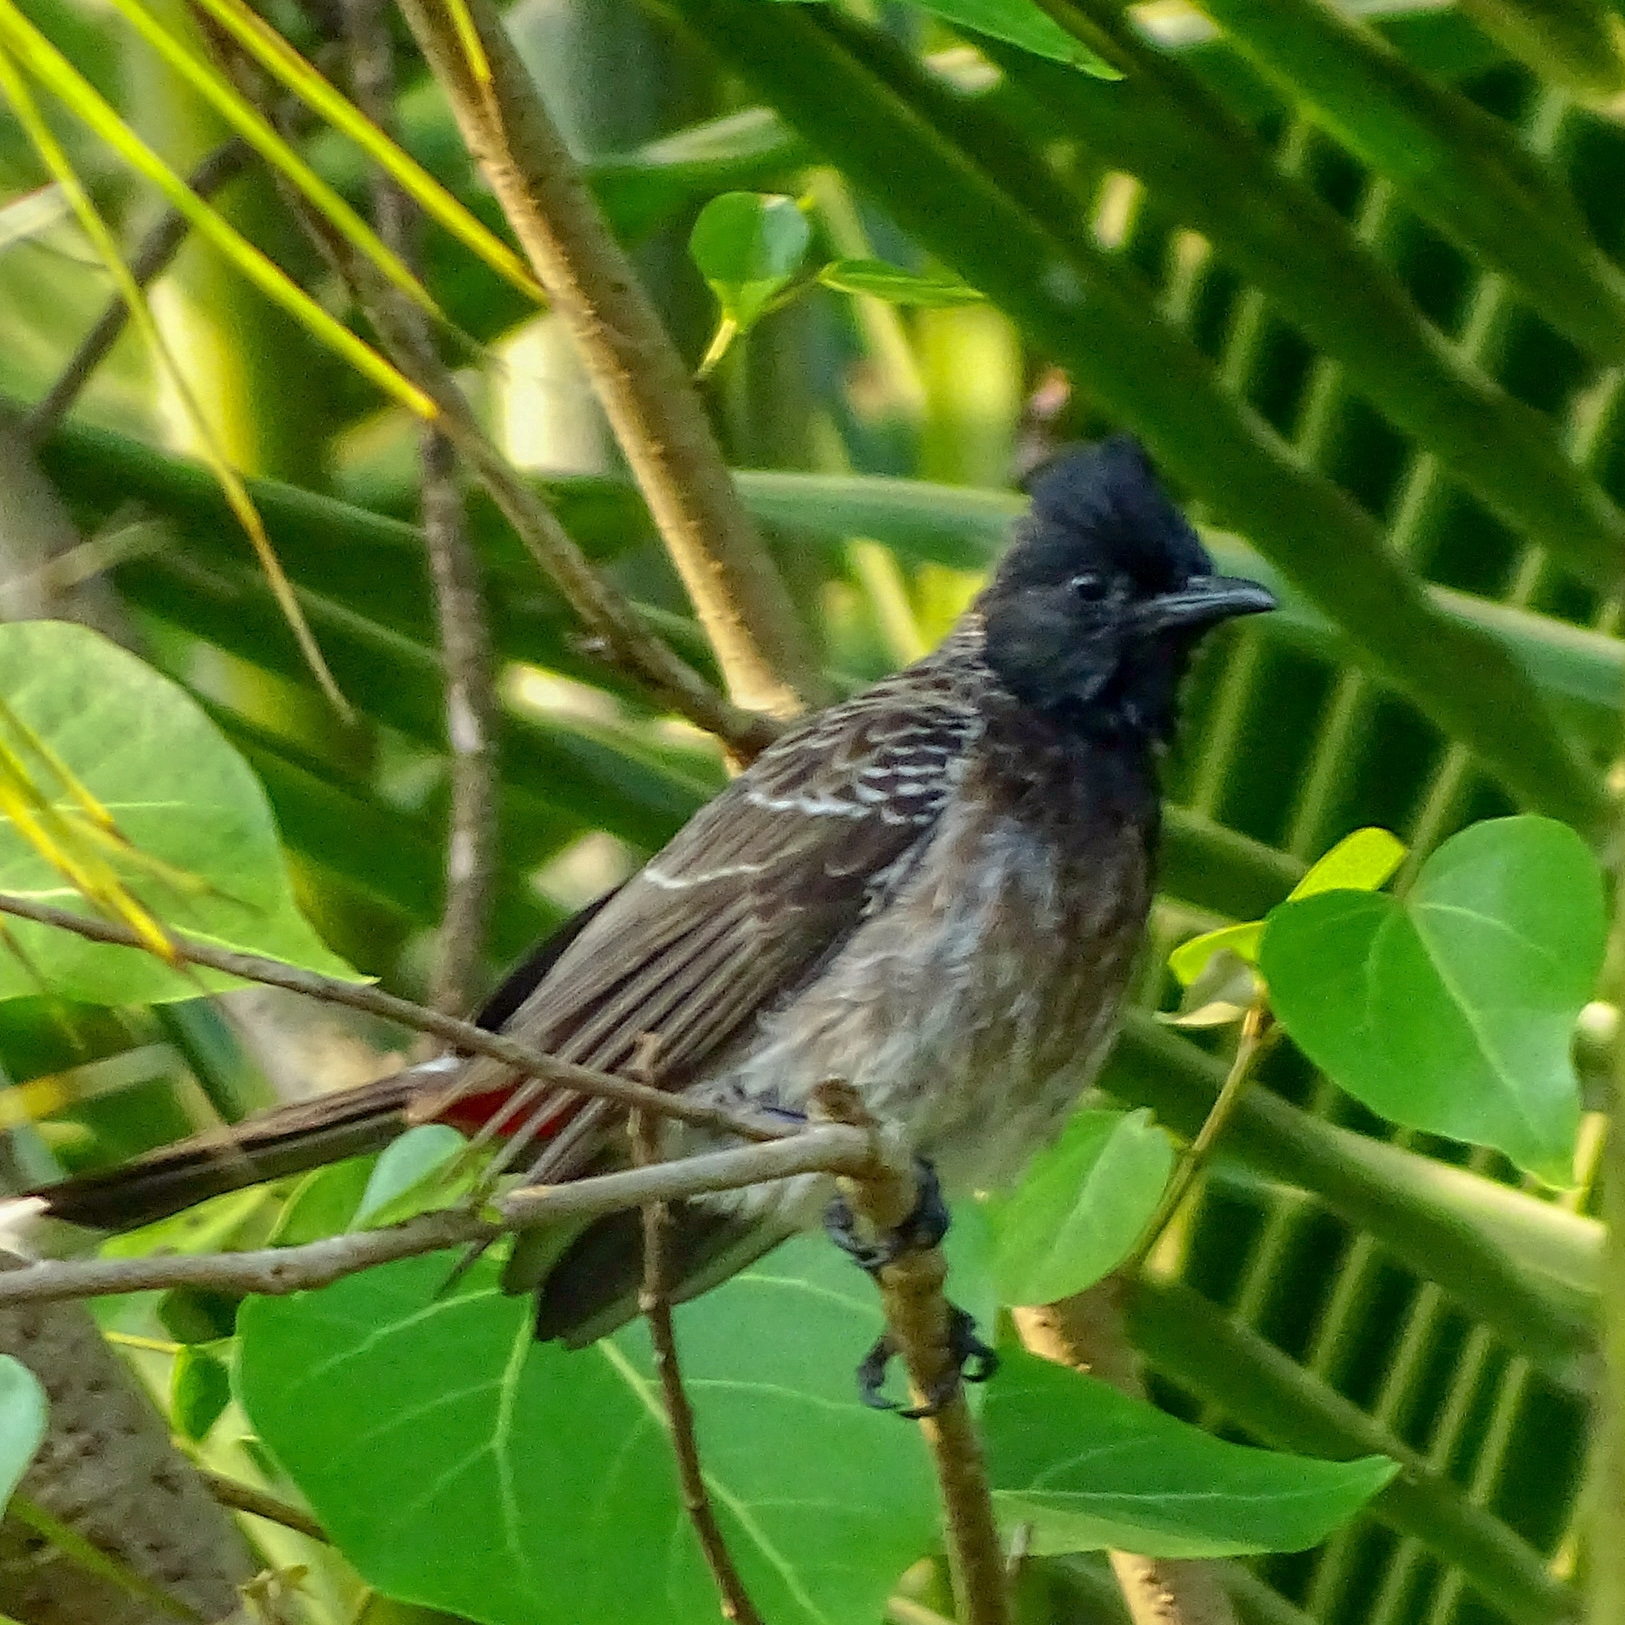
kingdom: Animalia
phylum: Chordata
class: Aves
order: Passeriformes
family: Pycnonotidae
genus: Pycnonotus
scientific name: Pycnonotus cafer
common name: Red-vented bulbul
